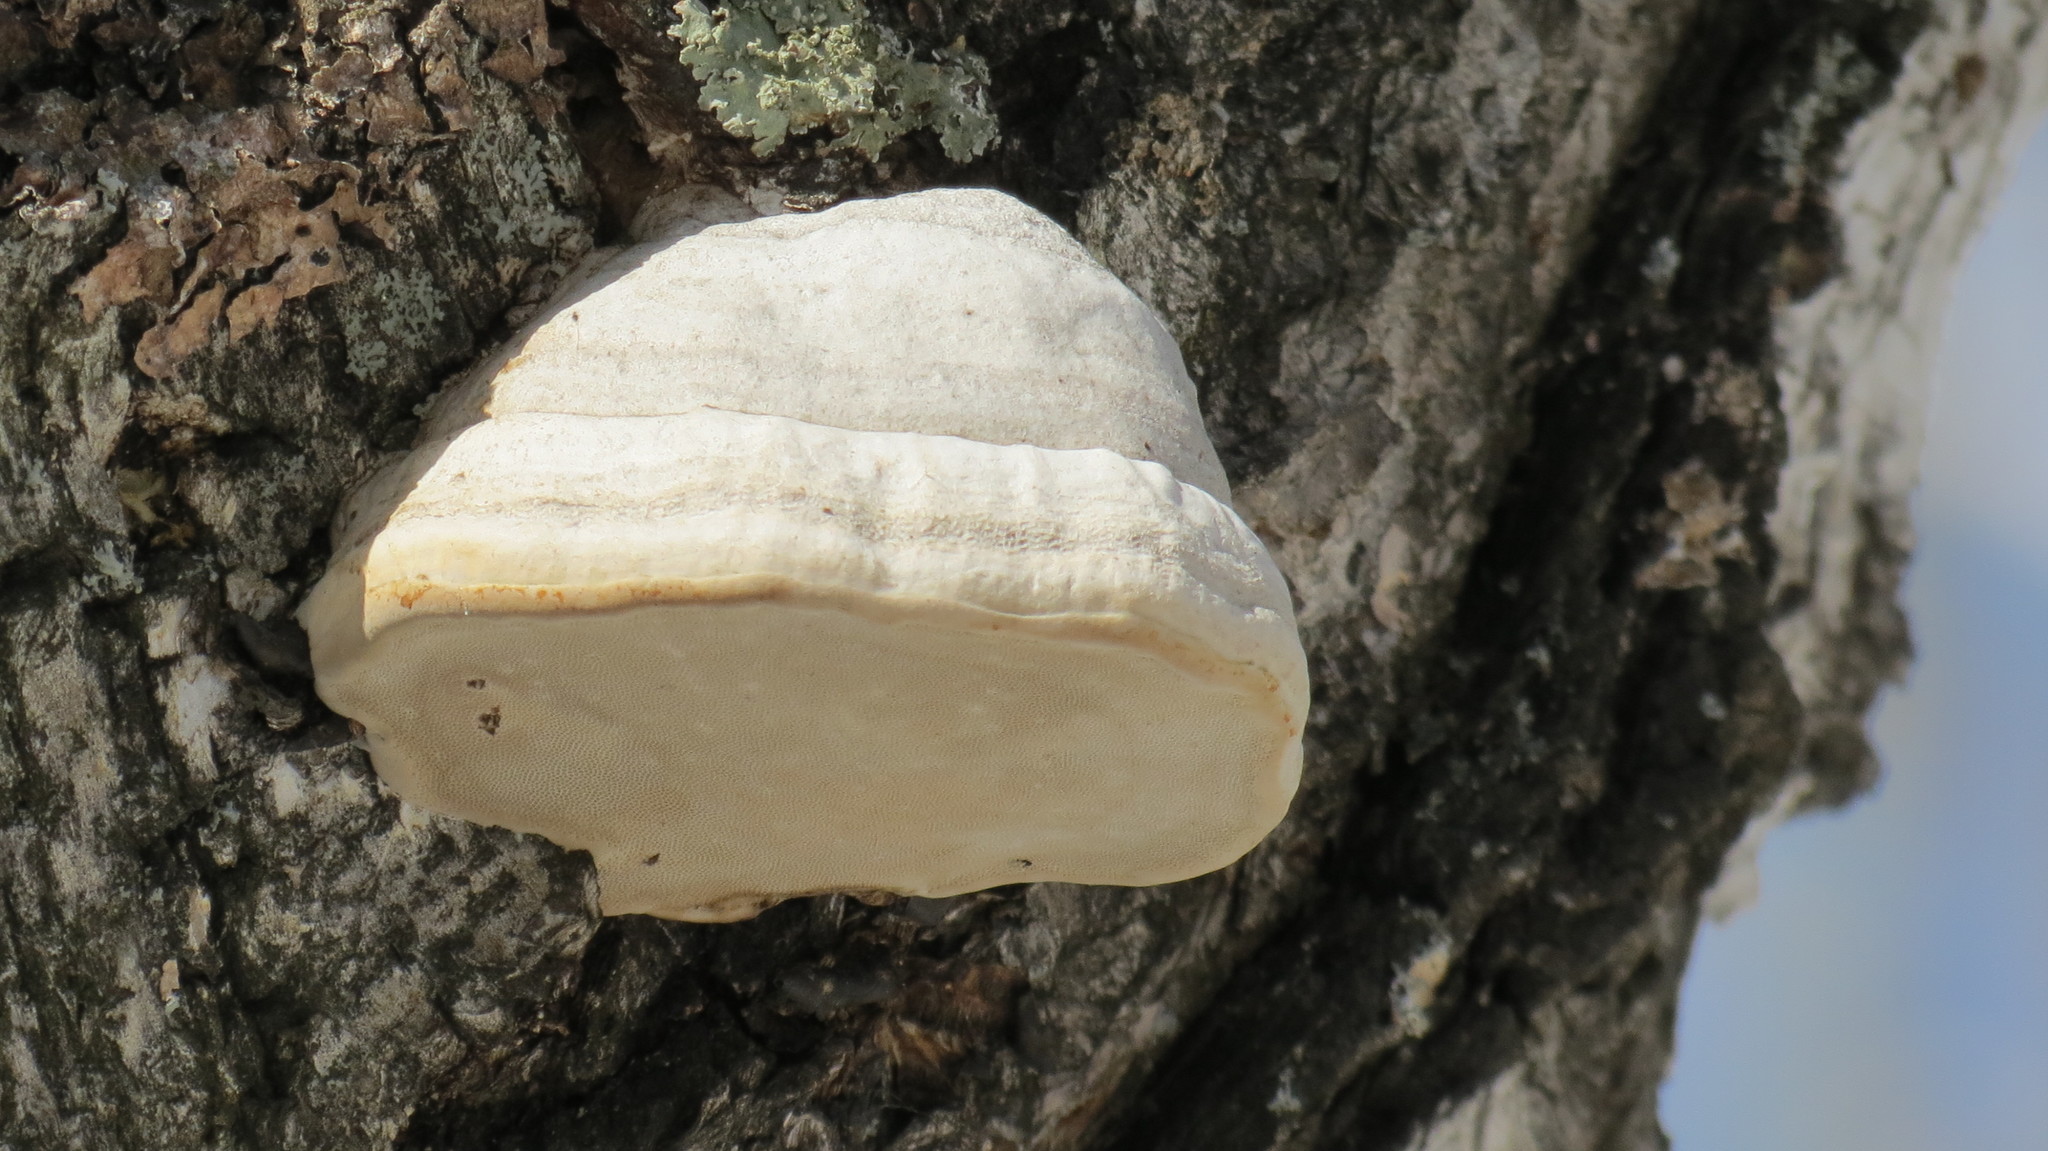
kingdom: Fungi
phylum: Basidiomycota
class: Agaricomycetes
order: Polyporales
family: Polyporaceae
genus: Fomes
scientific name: Fomes fomentarius
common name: Hoof fungus
